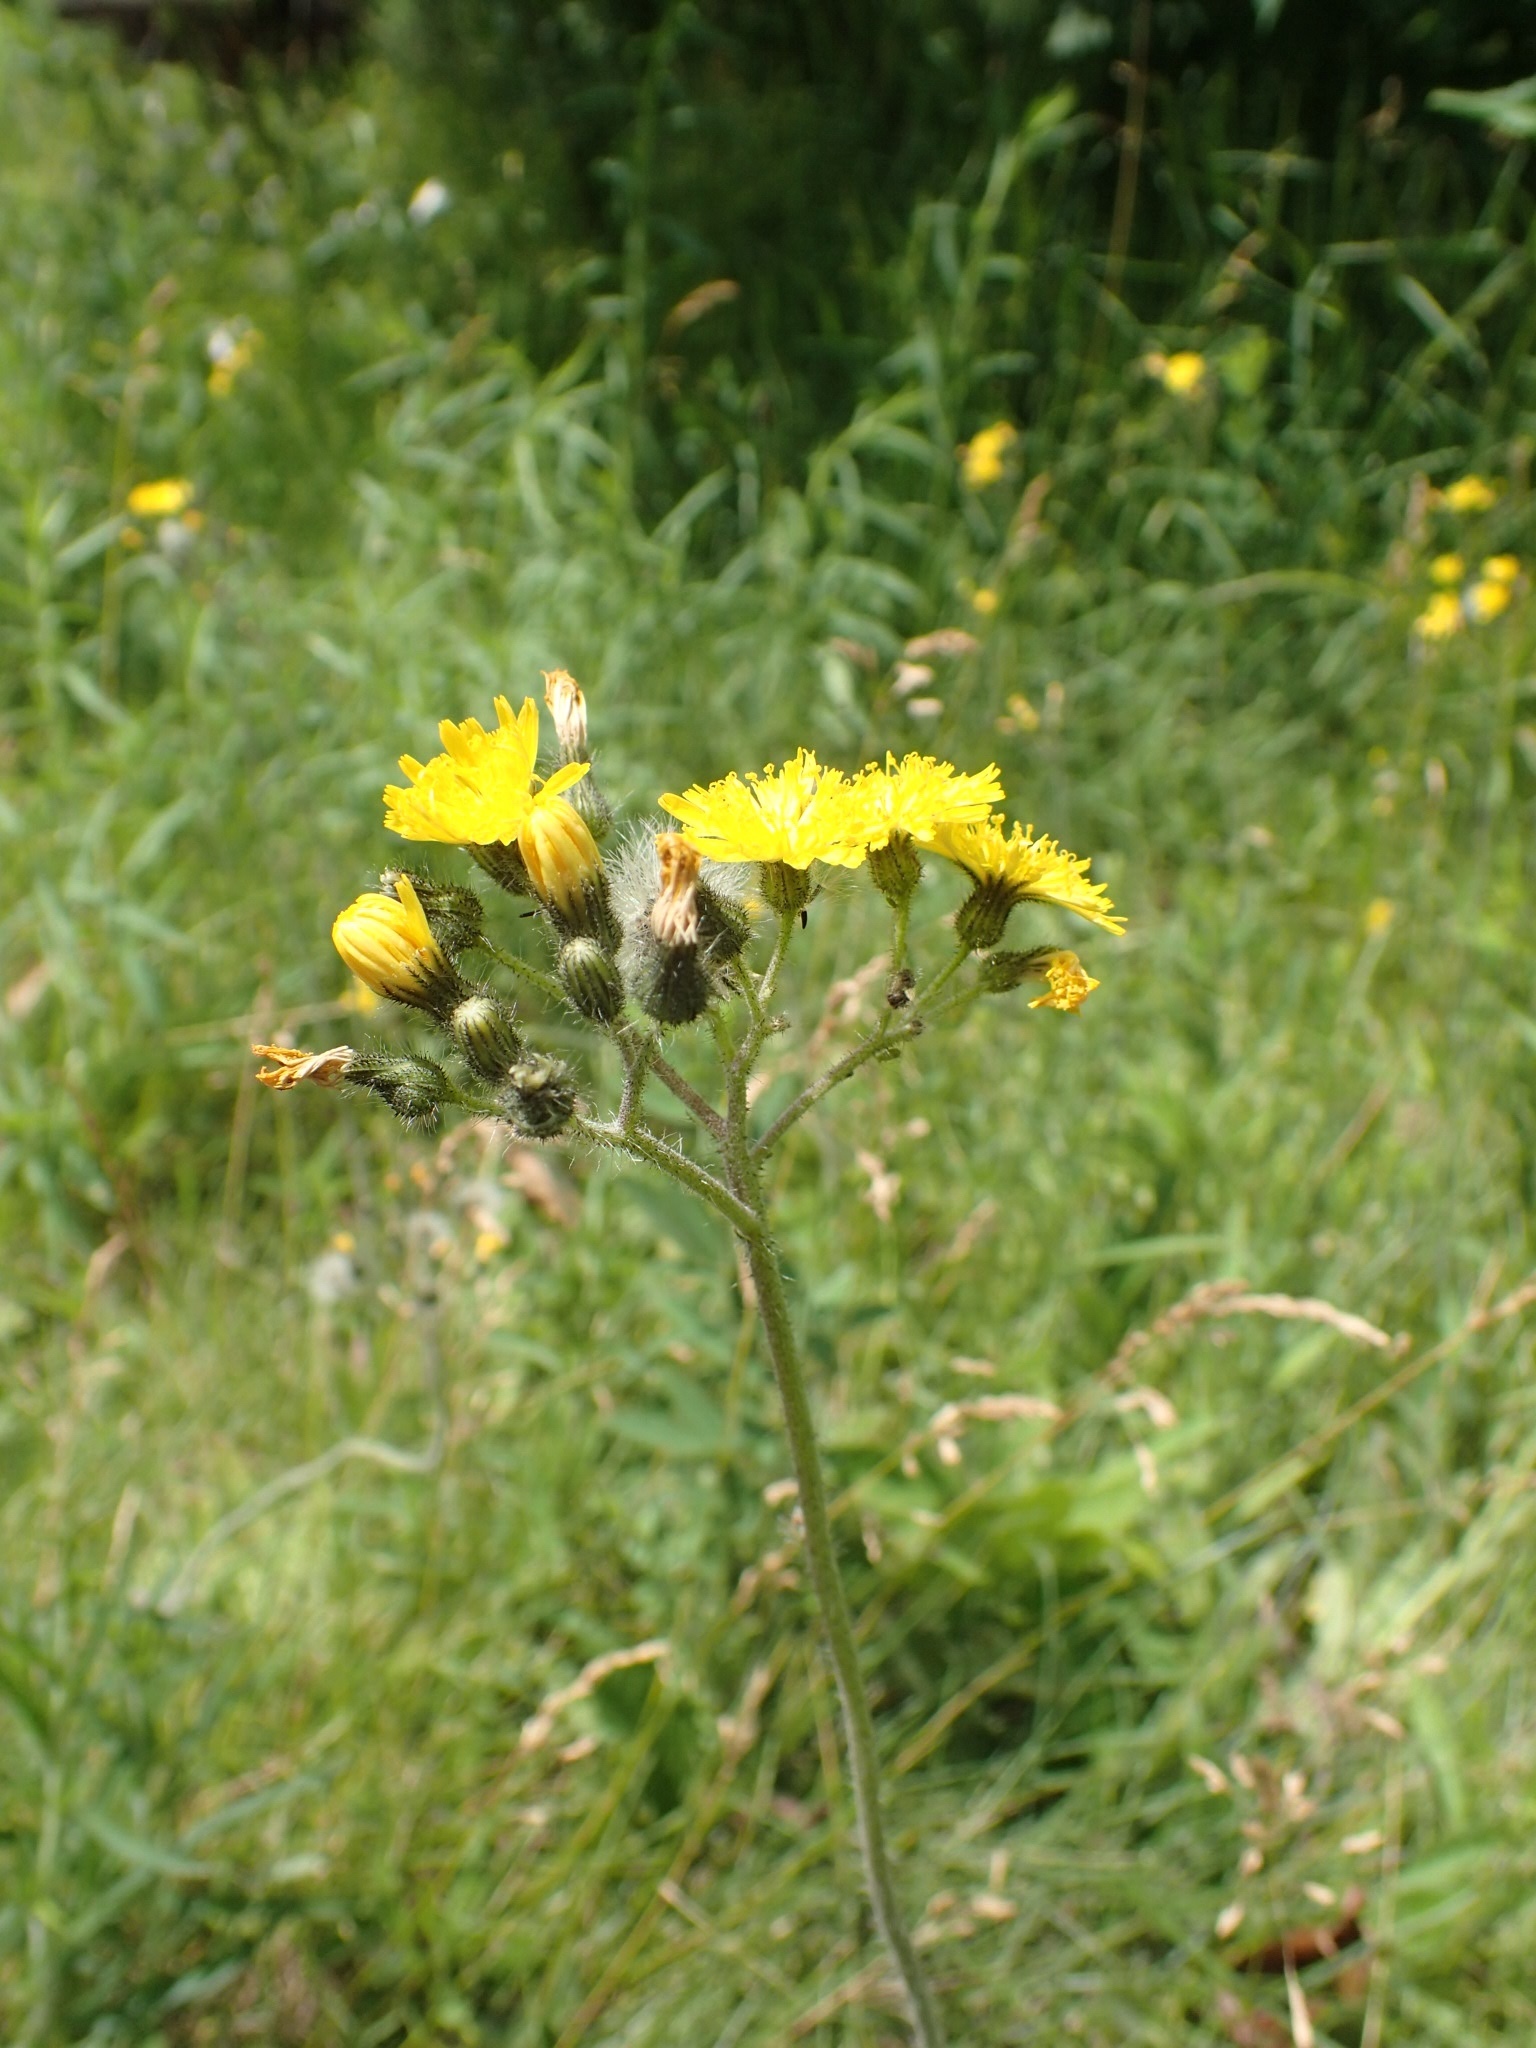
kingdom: Plantae
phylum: Tracheophyta
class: Magnoliopsida
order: Asterales
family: Asteraceae
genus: Pilosella
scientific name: Pilosella caespitosa
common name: Yellow fox-and-cubs
